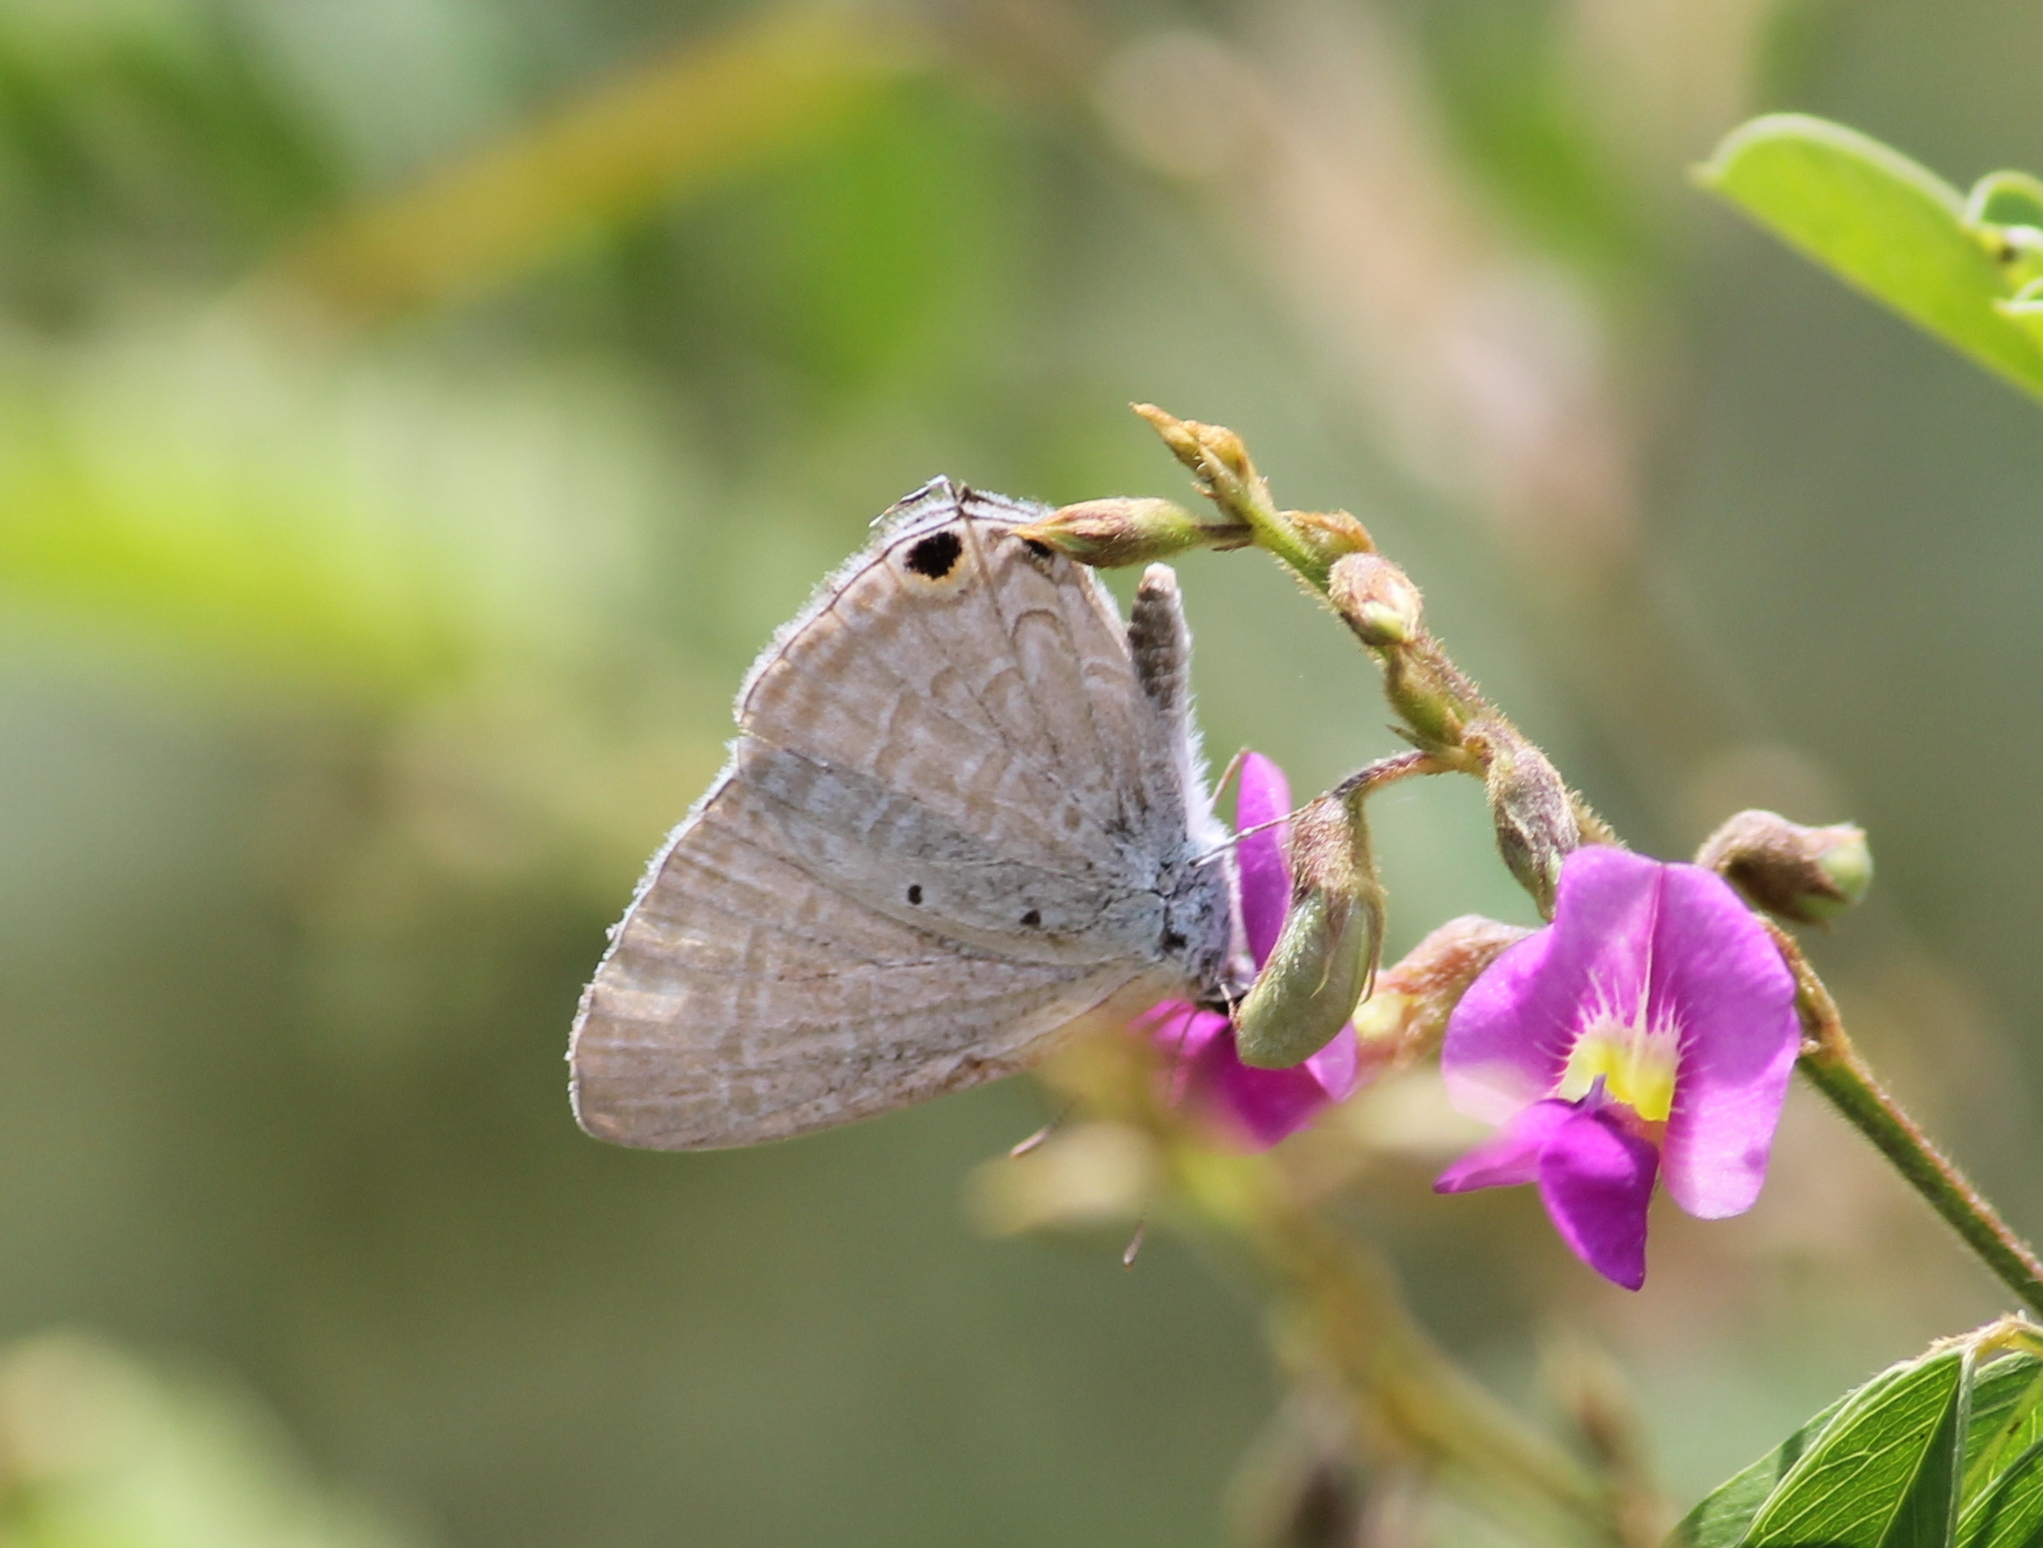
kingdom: Animalia
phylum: Arthropoda
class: Insecta
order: Lepidoptera
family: Lycaenidae
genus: Catochrysops
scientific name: Catochrysops strabo
